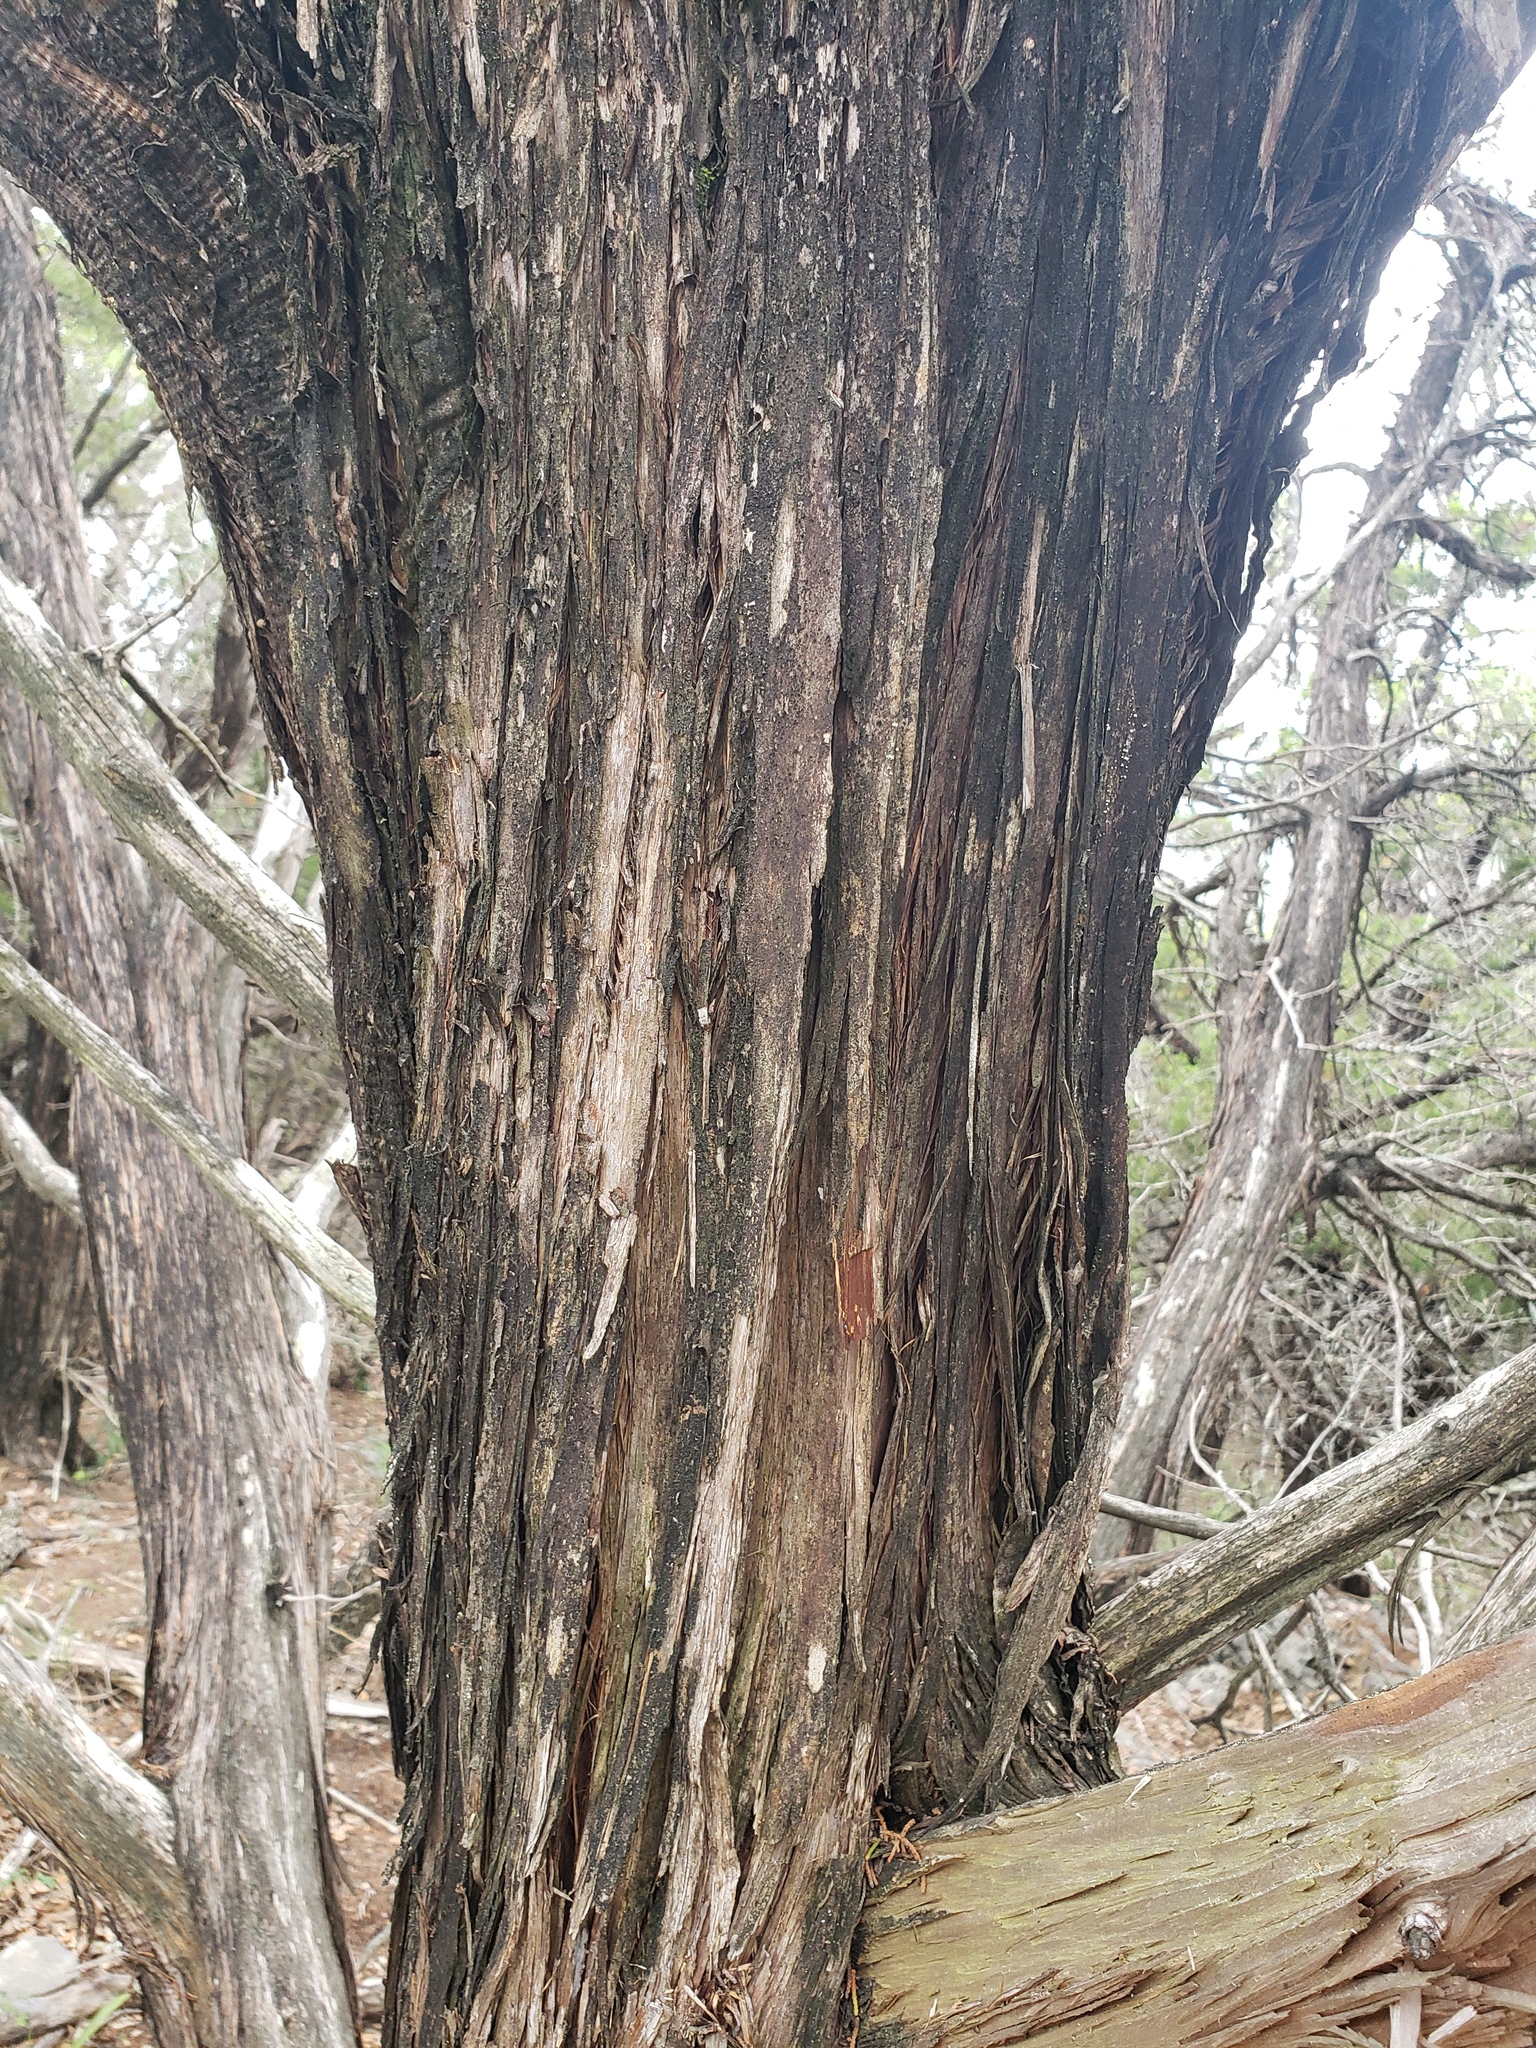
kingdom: Plantae
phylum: Tracheophyta
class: Pinopsida
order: Pinales
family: Cupressaceae
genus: Juniperus
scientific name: Juniperus ashei
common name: Mexican juniper
